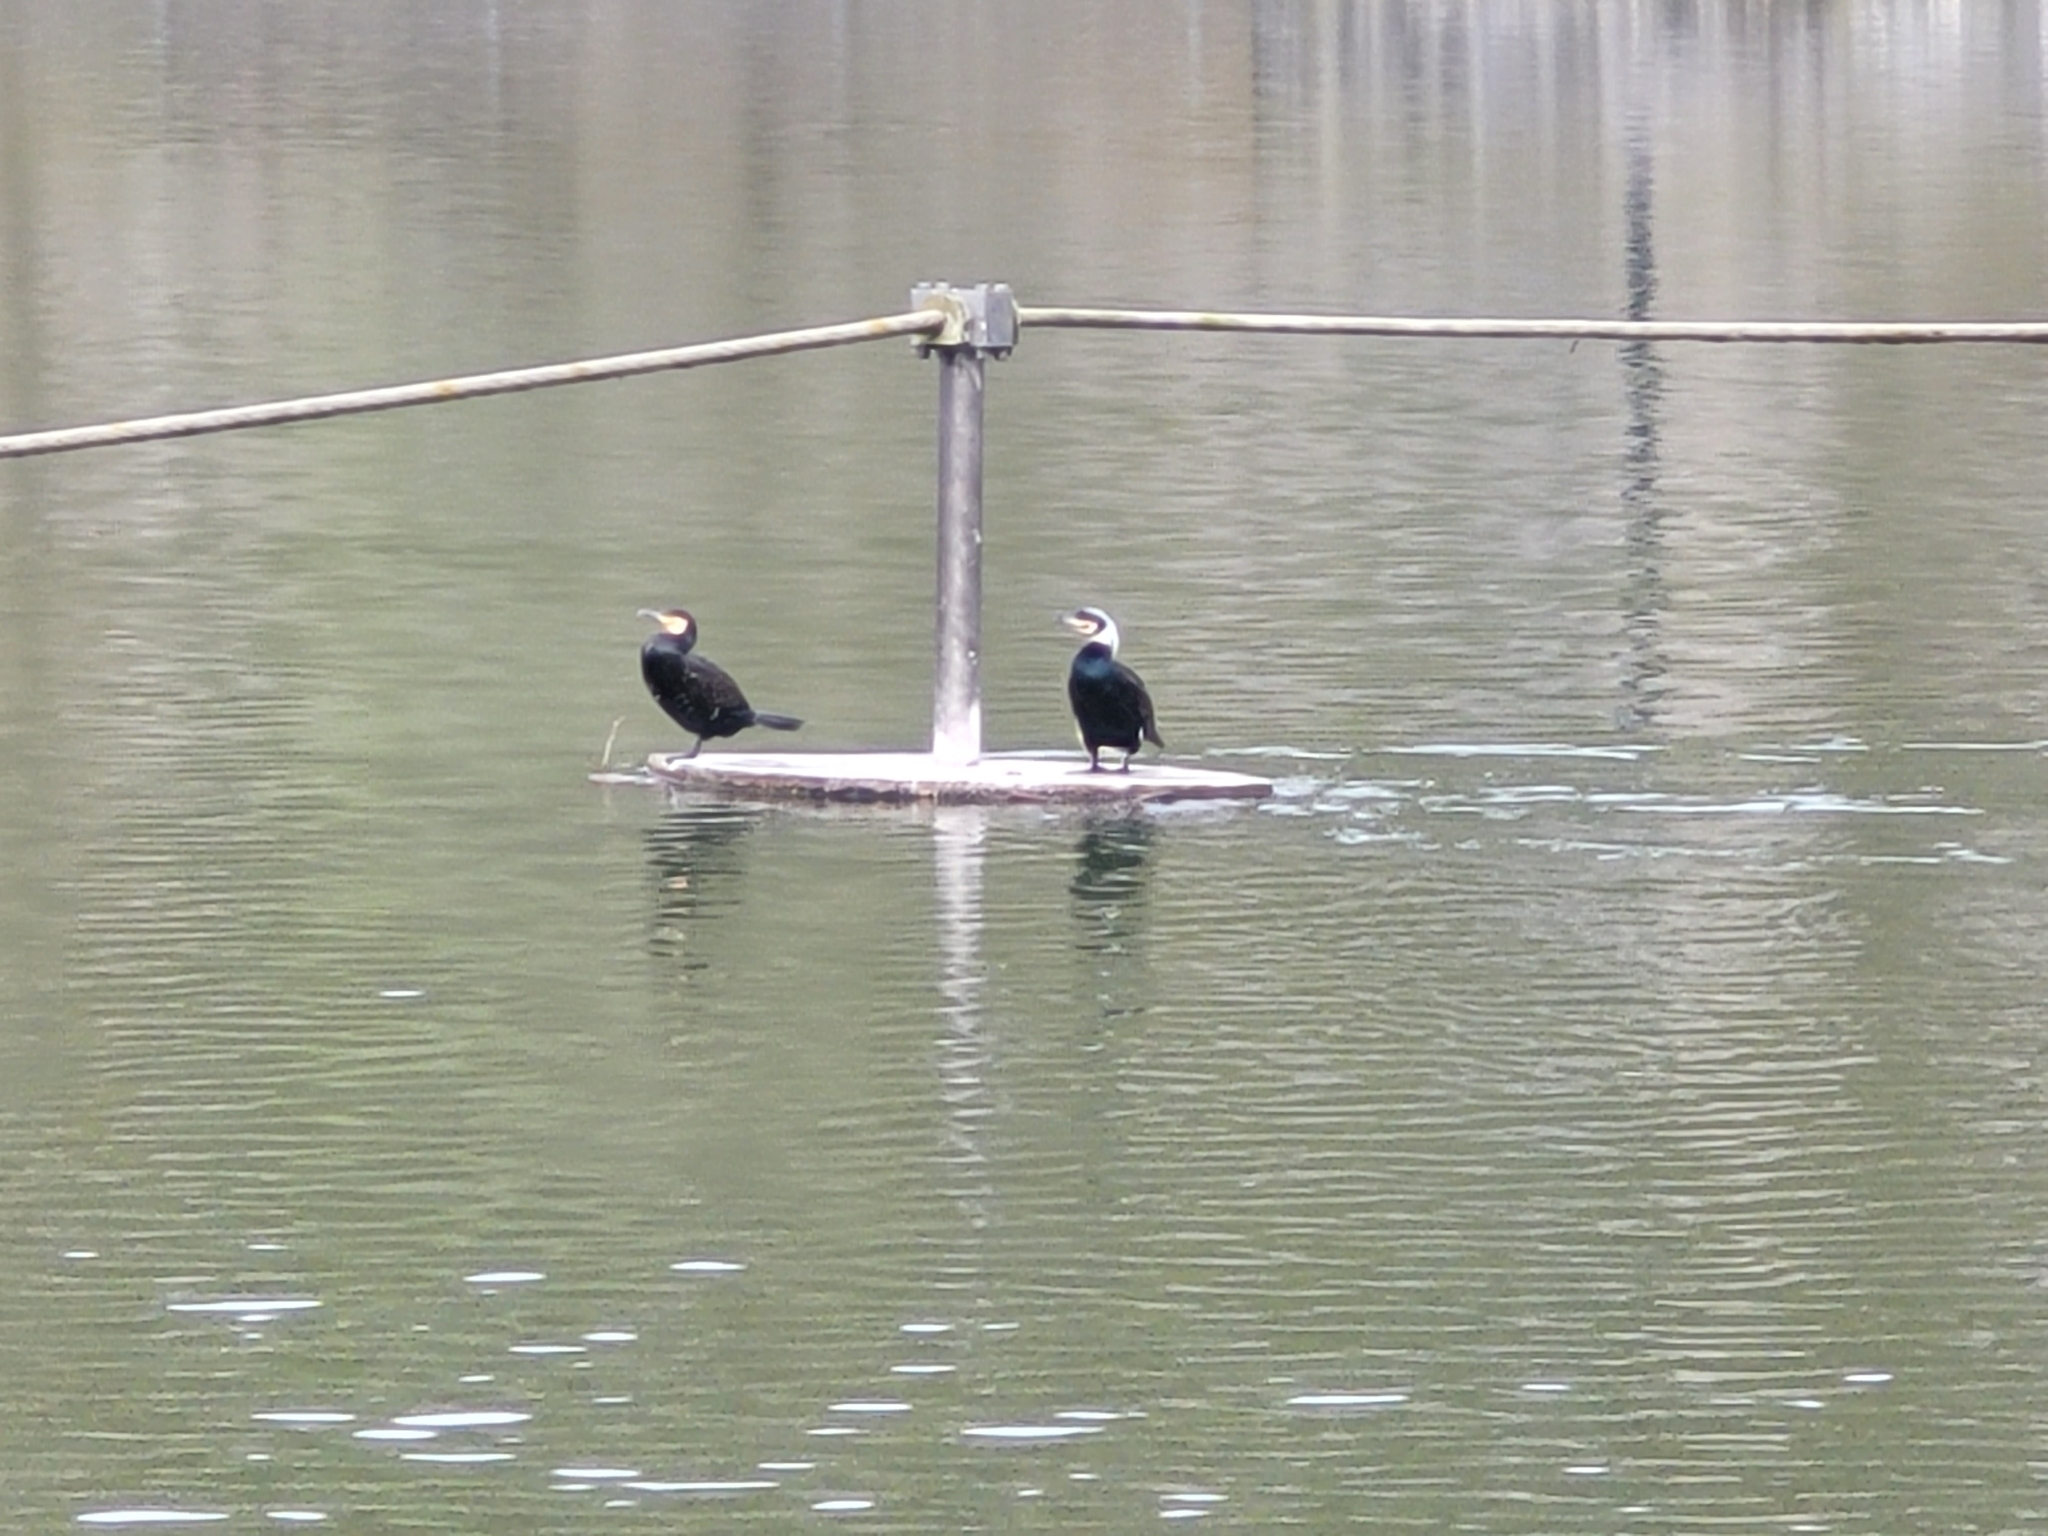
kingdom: Animalia
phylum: Chordata
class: Aves
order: Suliformes
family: Phalacrocoracidae
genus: Phalacrocorax
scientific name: Phalacrocorax carbo
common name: Great cormorant
